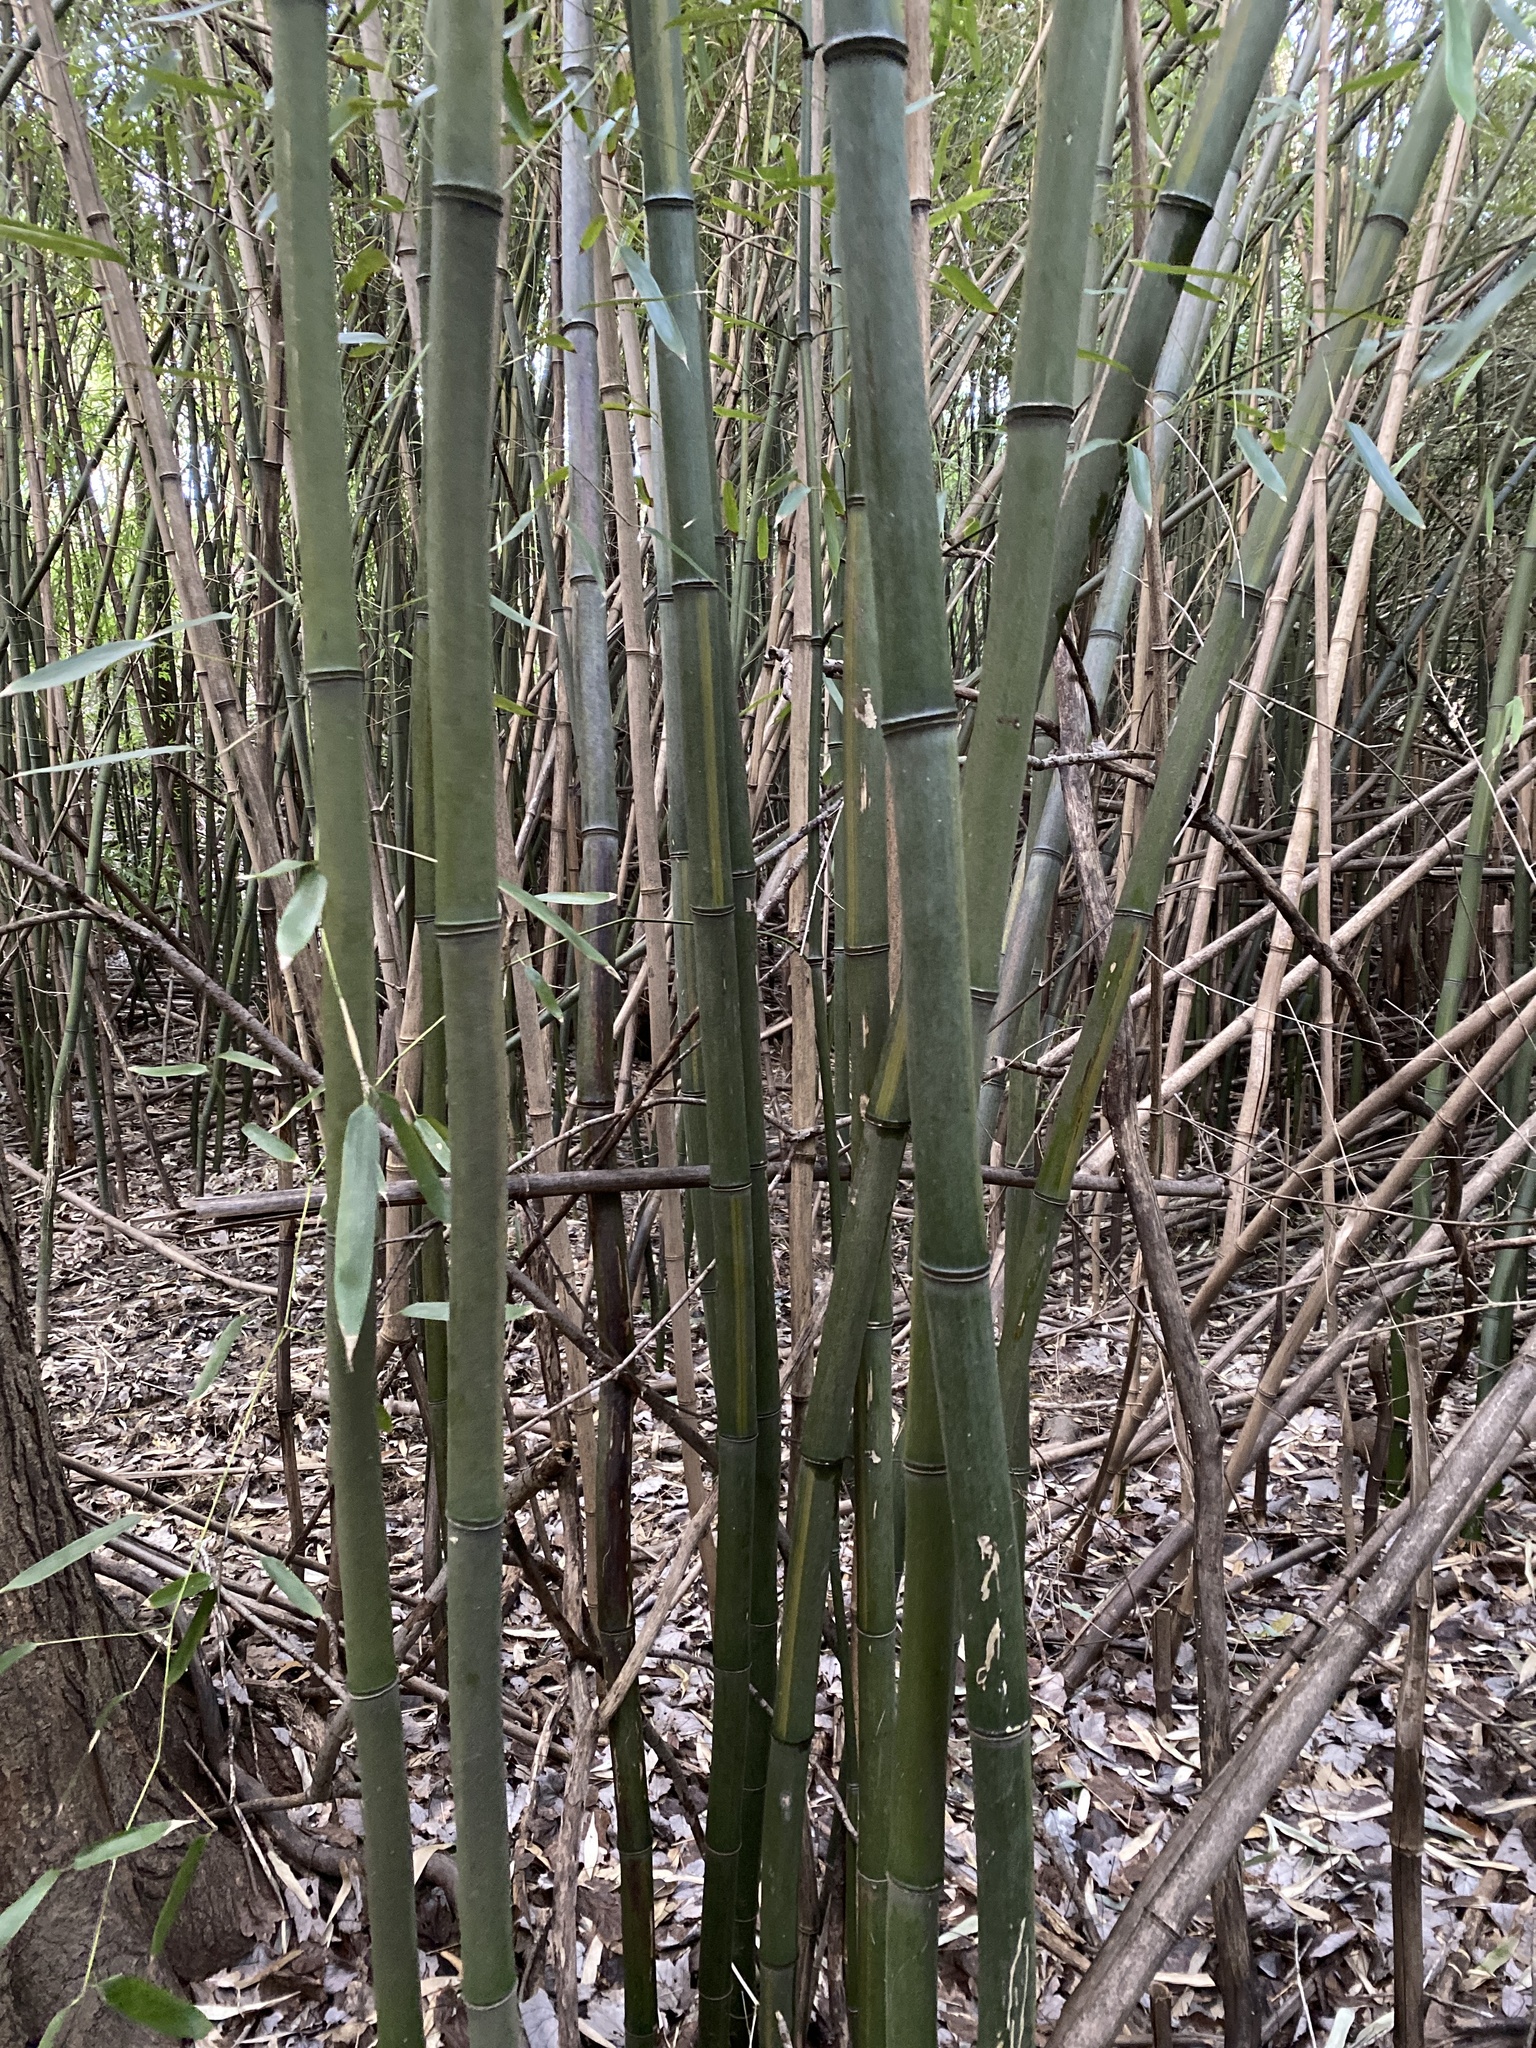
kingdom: Plantae
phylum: Tracheophyta
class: Liliopsida
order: Poales
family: Poaceae
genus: Phyllostachys
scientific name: Phyllostachys aureosulcata
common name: Yellow groove bamboo
